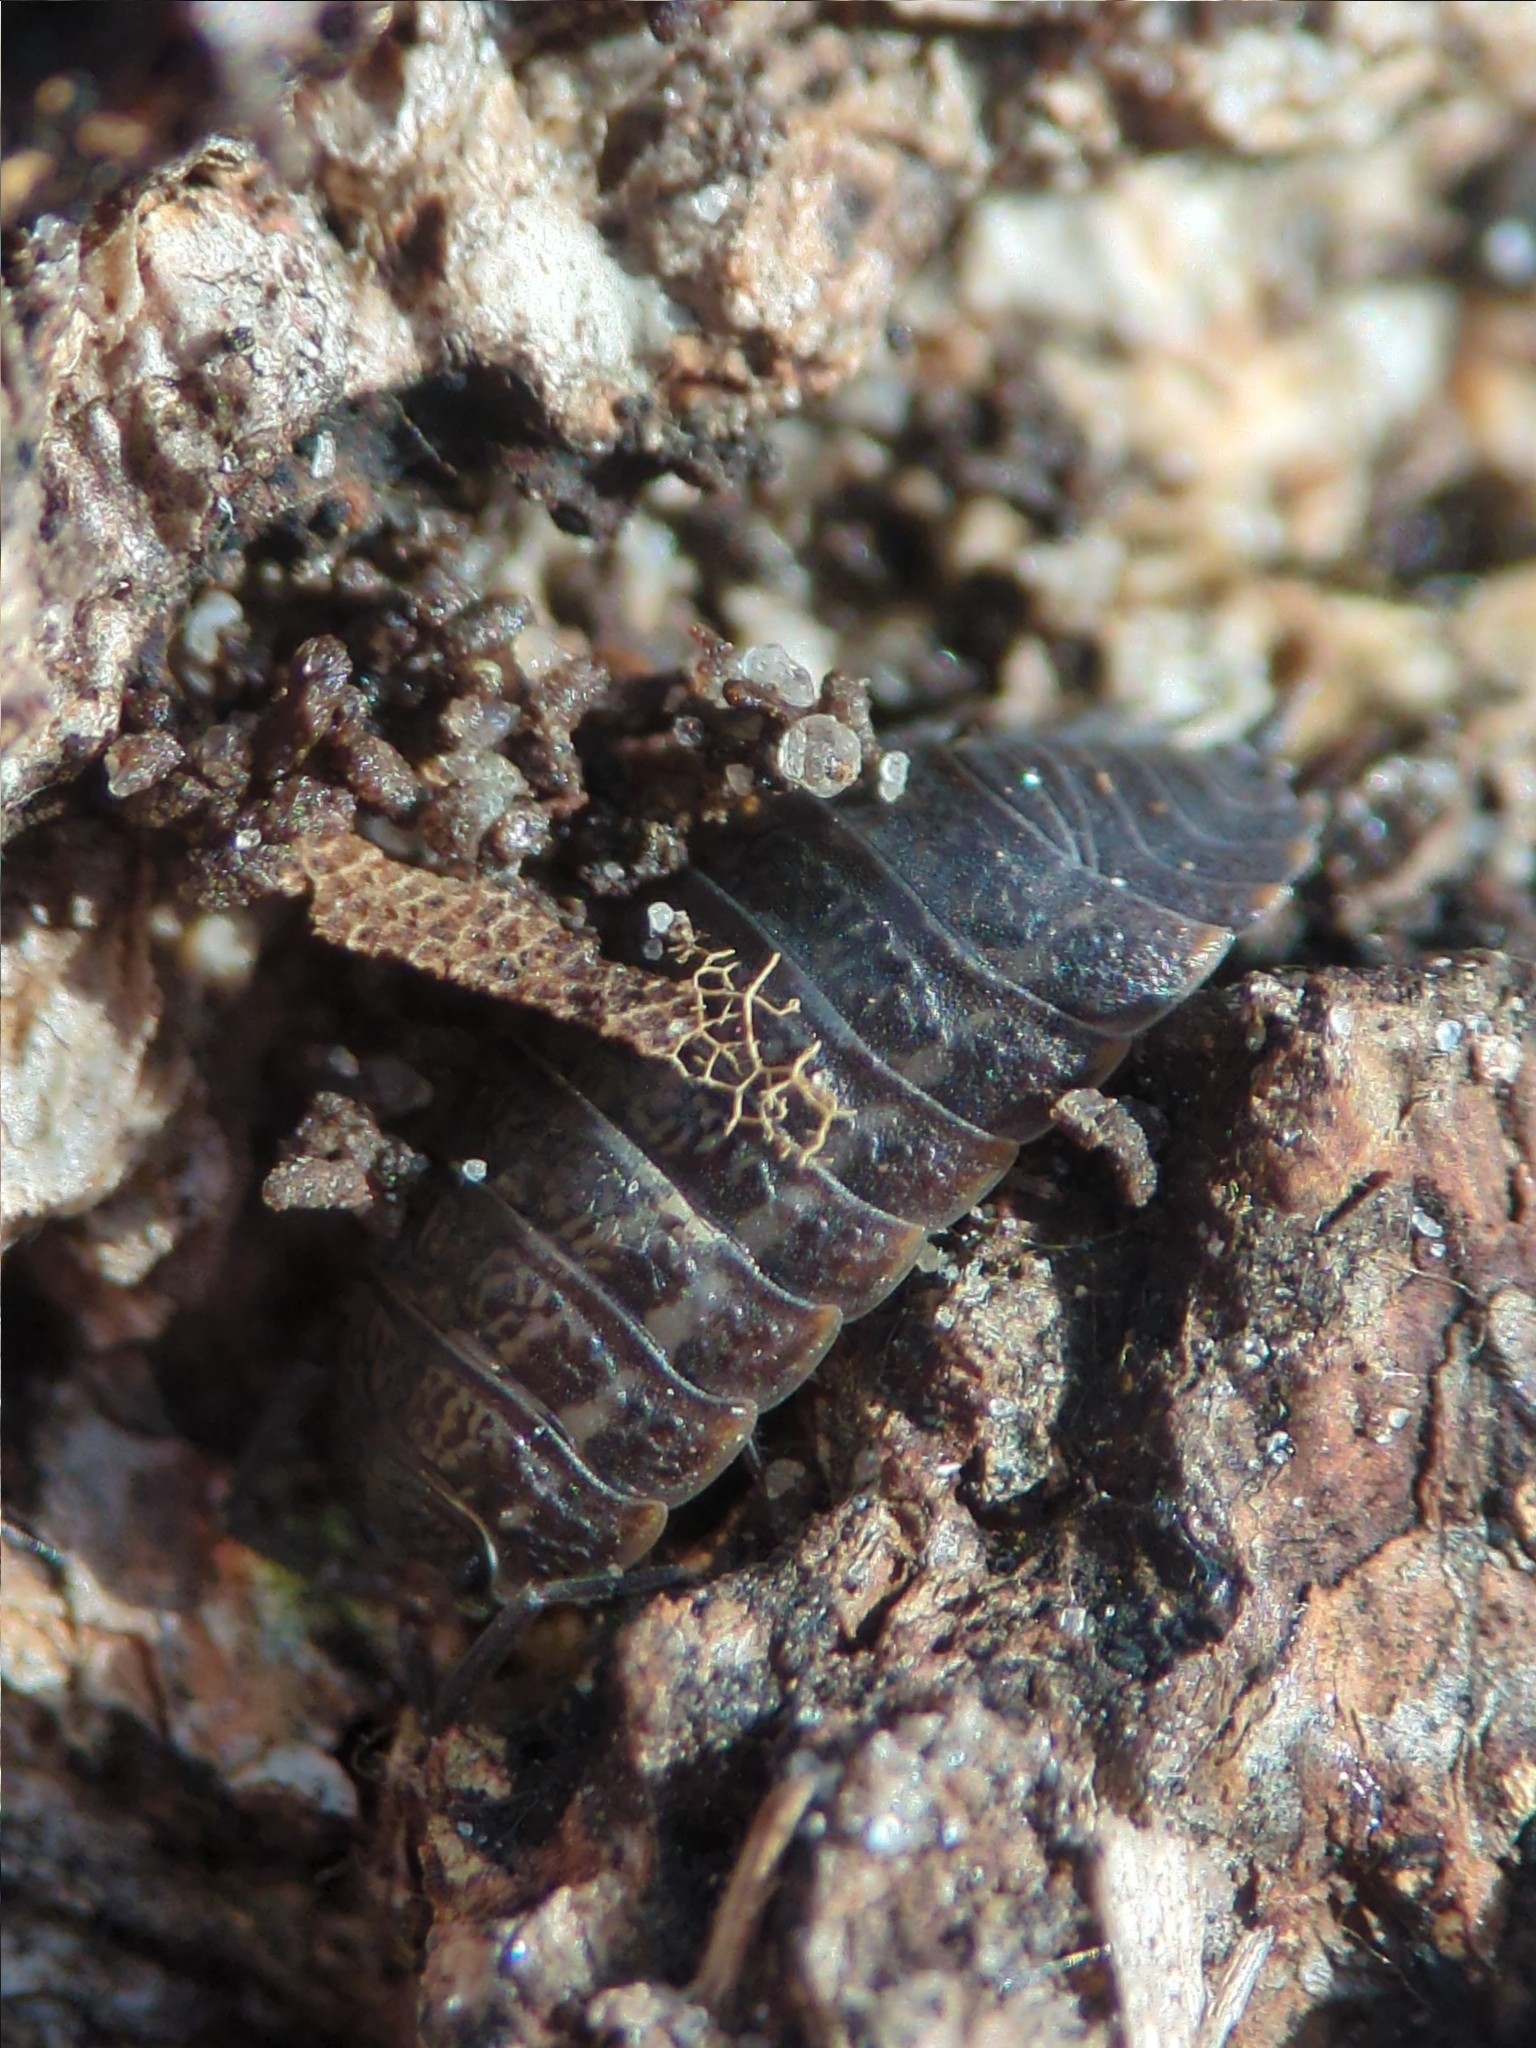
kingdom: Animalia
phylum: Arthropoda
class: Malacostraca
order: Isopoda
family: Trachelipodidae
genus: Trachelipus
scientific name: Trachelipus rathkii
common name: Isopod
